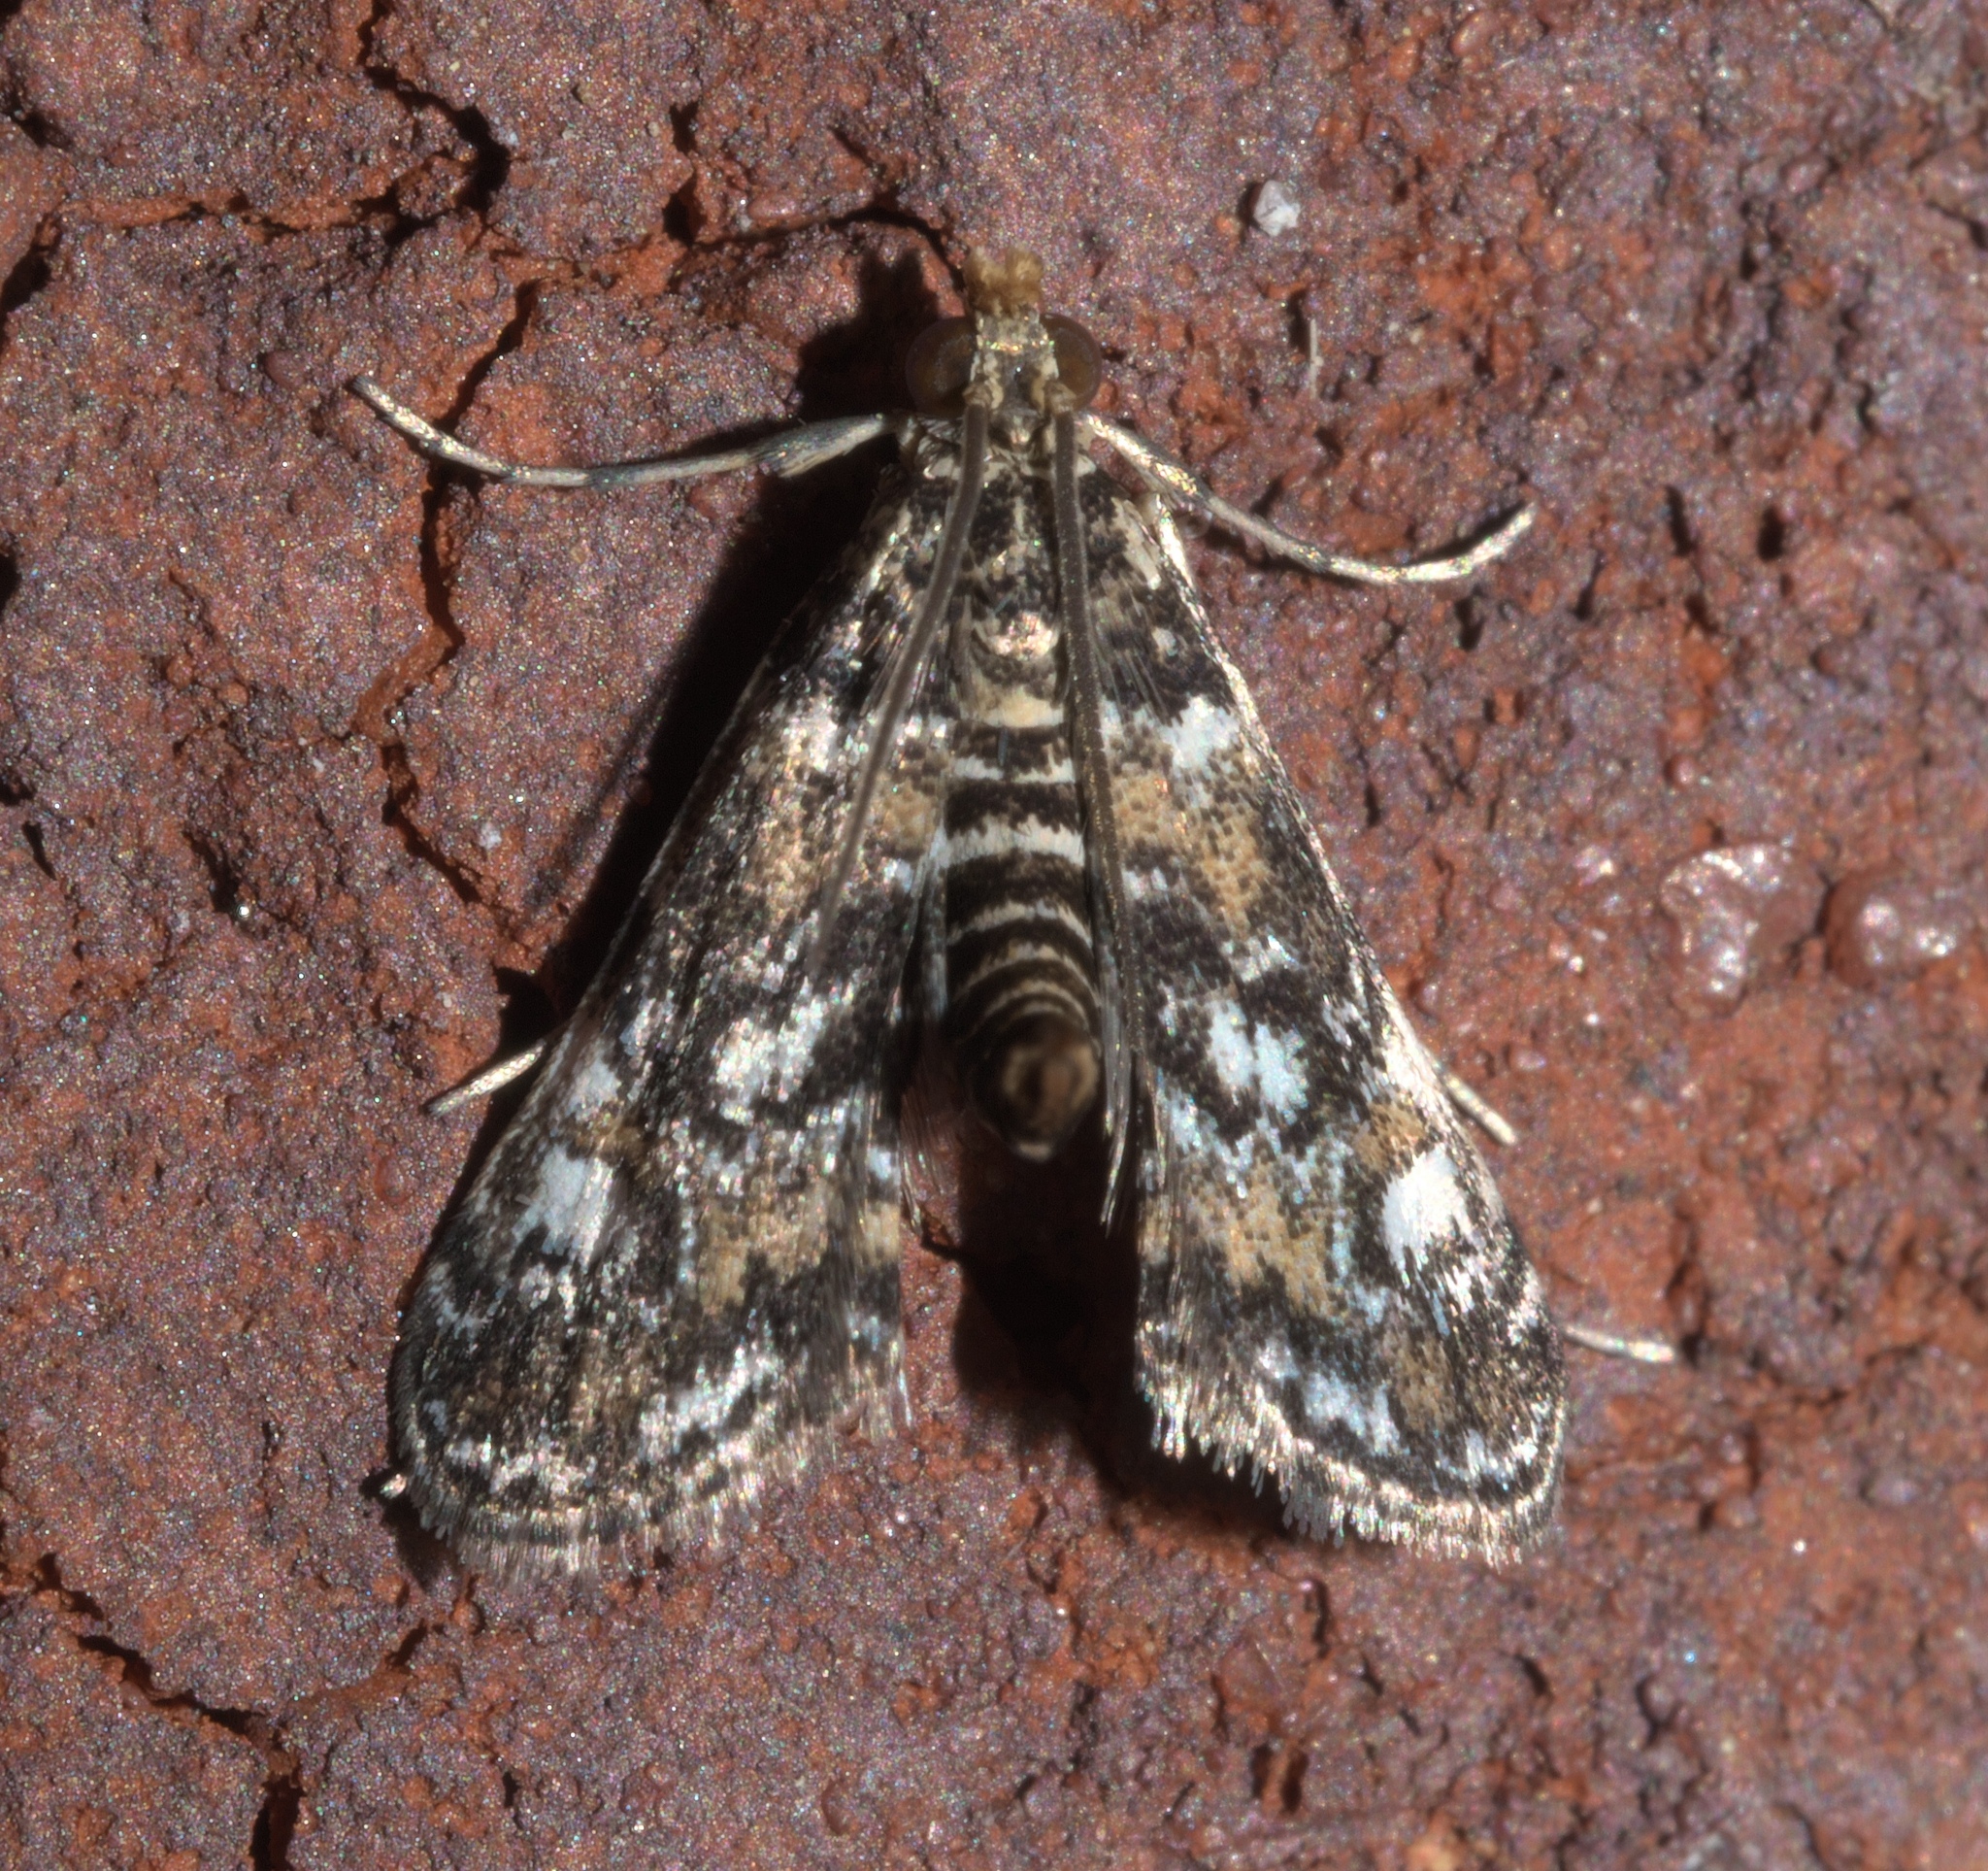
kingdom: Animalia
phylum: Arthropoda
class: Insecta
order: Lepidoptera
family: Crambidae
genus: Elophila
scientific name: Elophila obliteralis
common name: Waterlily leafcutter moth
